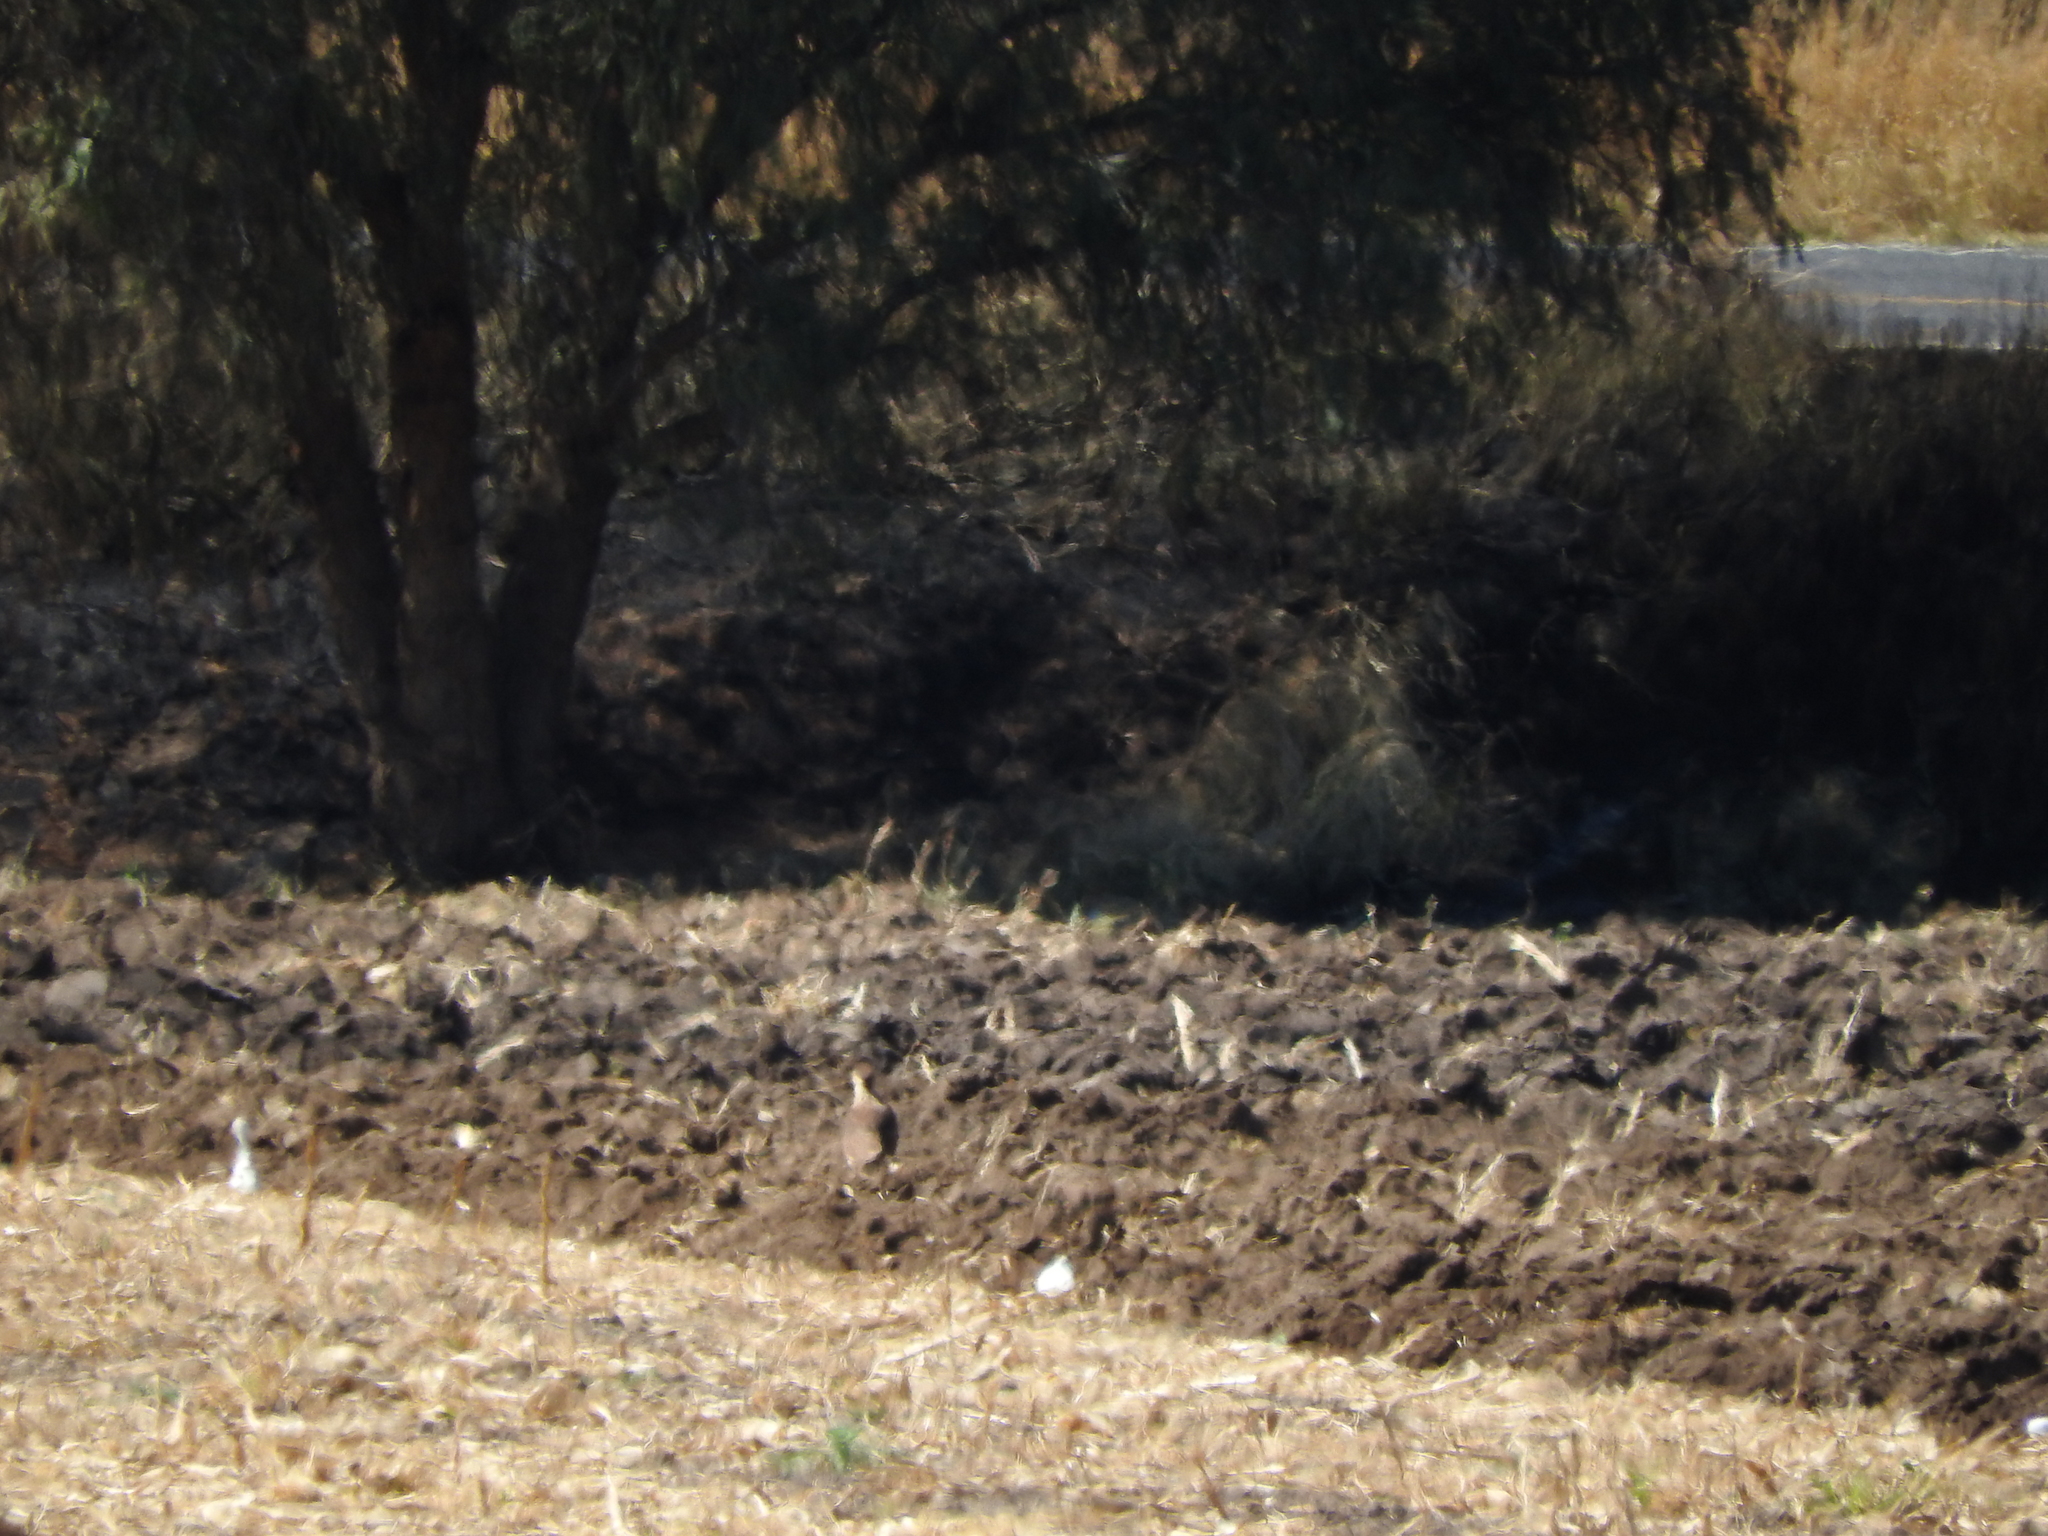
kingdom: Animalia
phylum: Chordata
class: Aves
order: Falconiformes
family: Falconidae
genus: Caracara
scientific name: Caracara plancus
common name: Southern caracara
